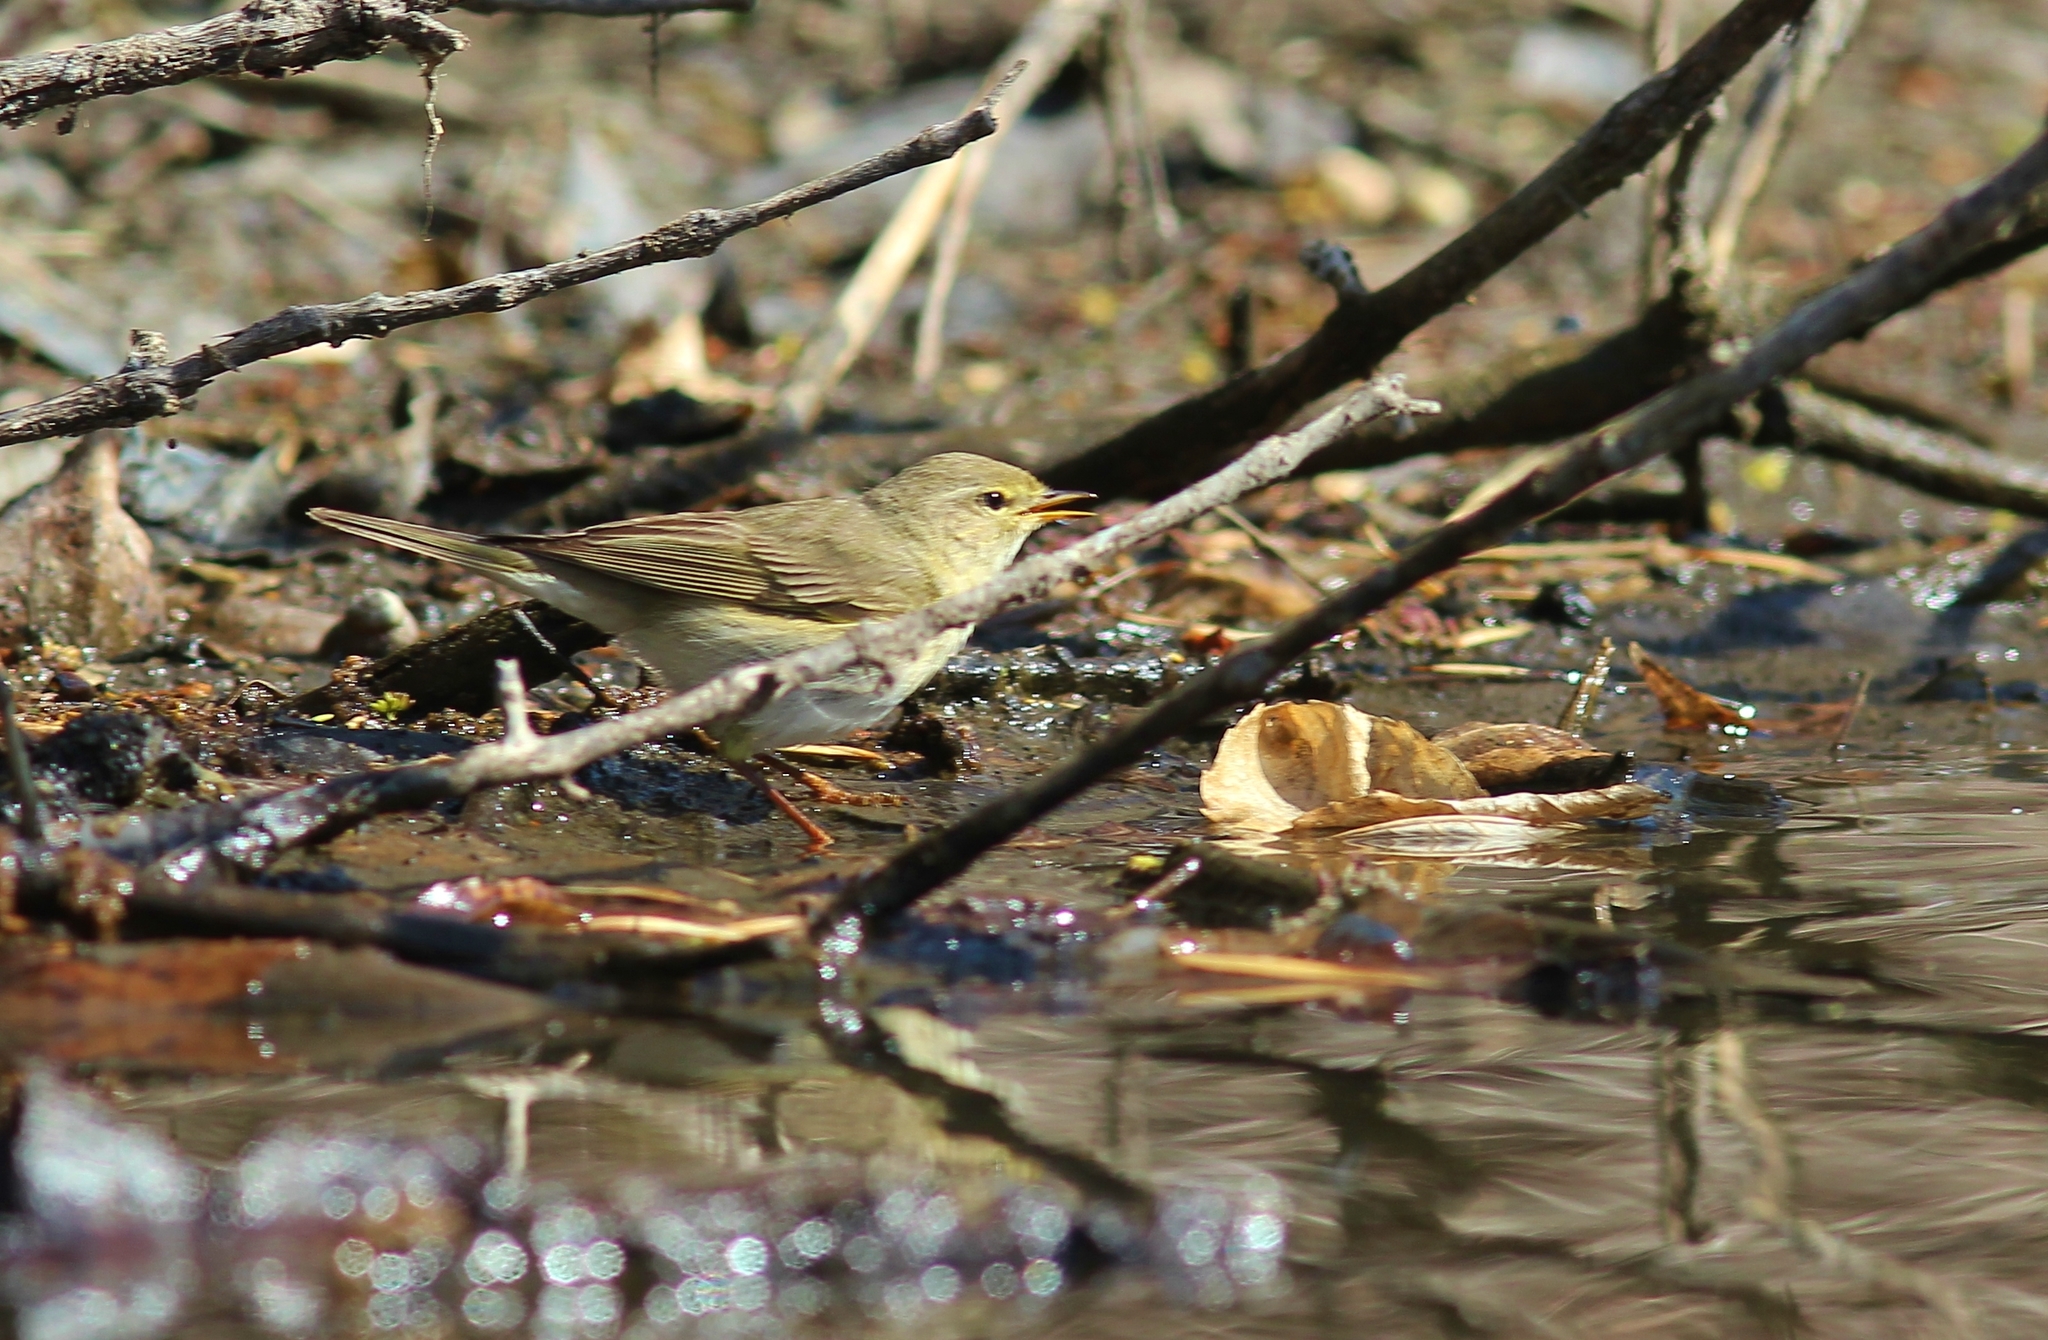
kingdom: Animalia
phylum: Chordata
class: Aves
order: Passeriformes
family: Phylloscopidae
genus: Phylloscopus
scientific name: Phylloscopus trochilus
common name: Willow warbler
